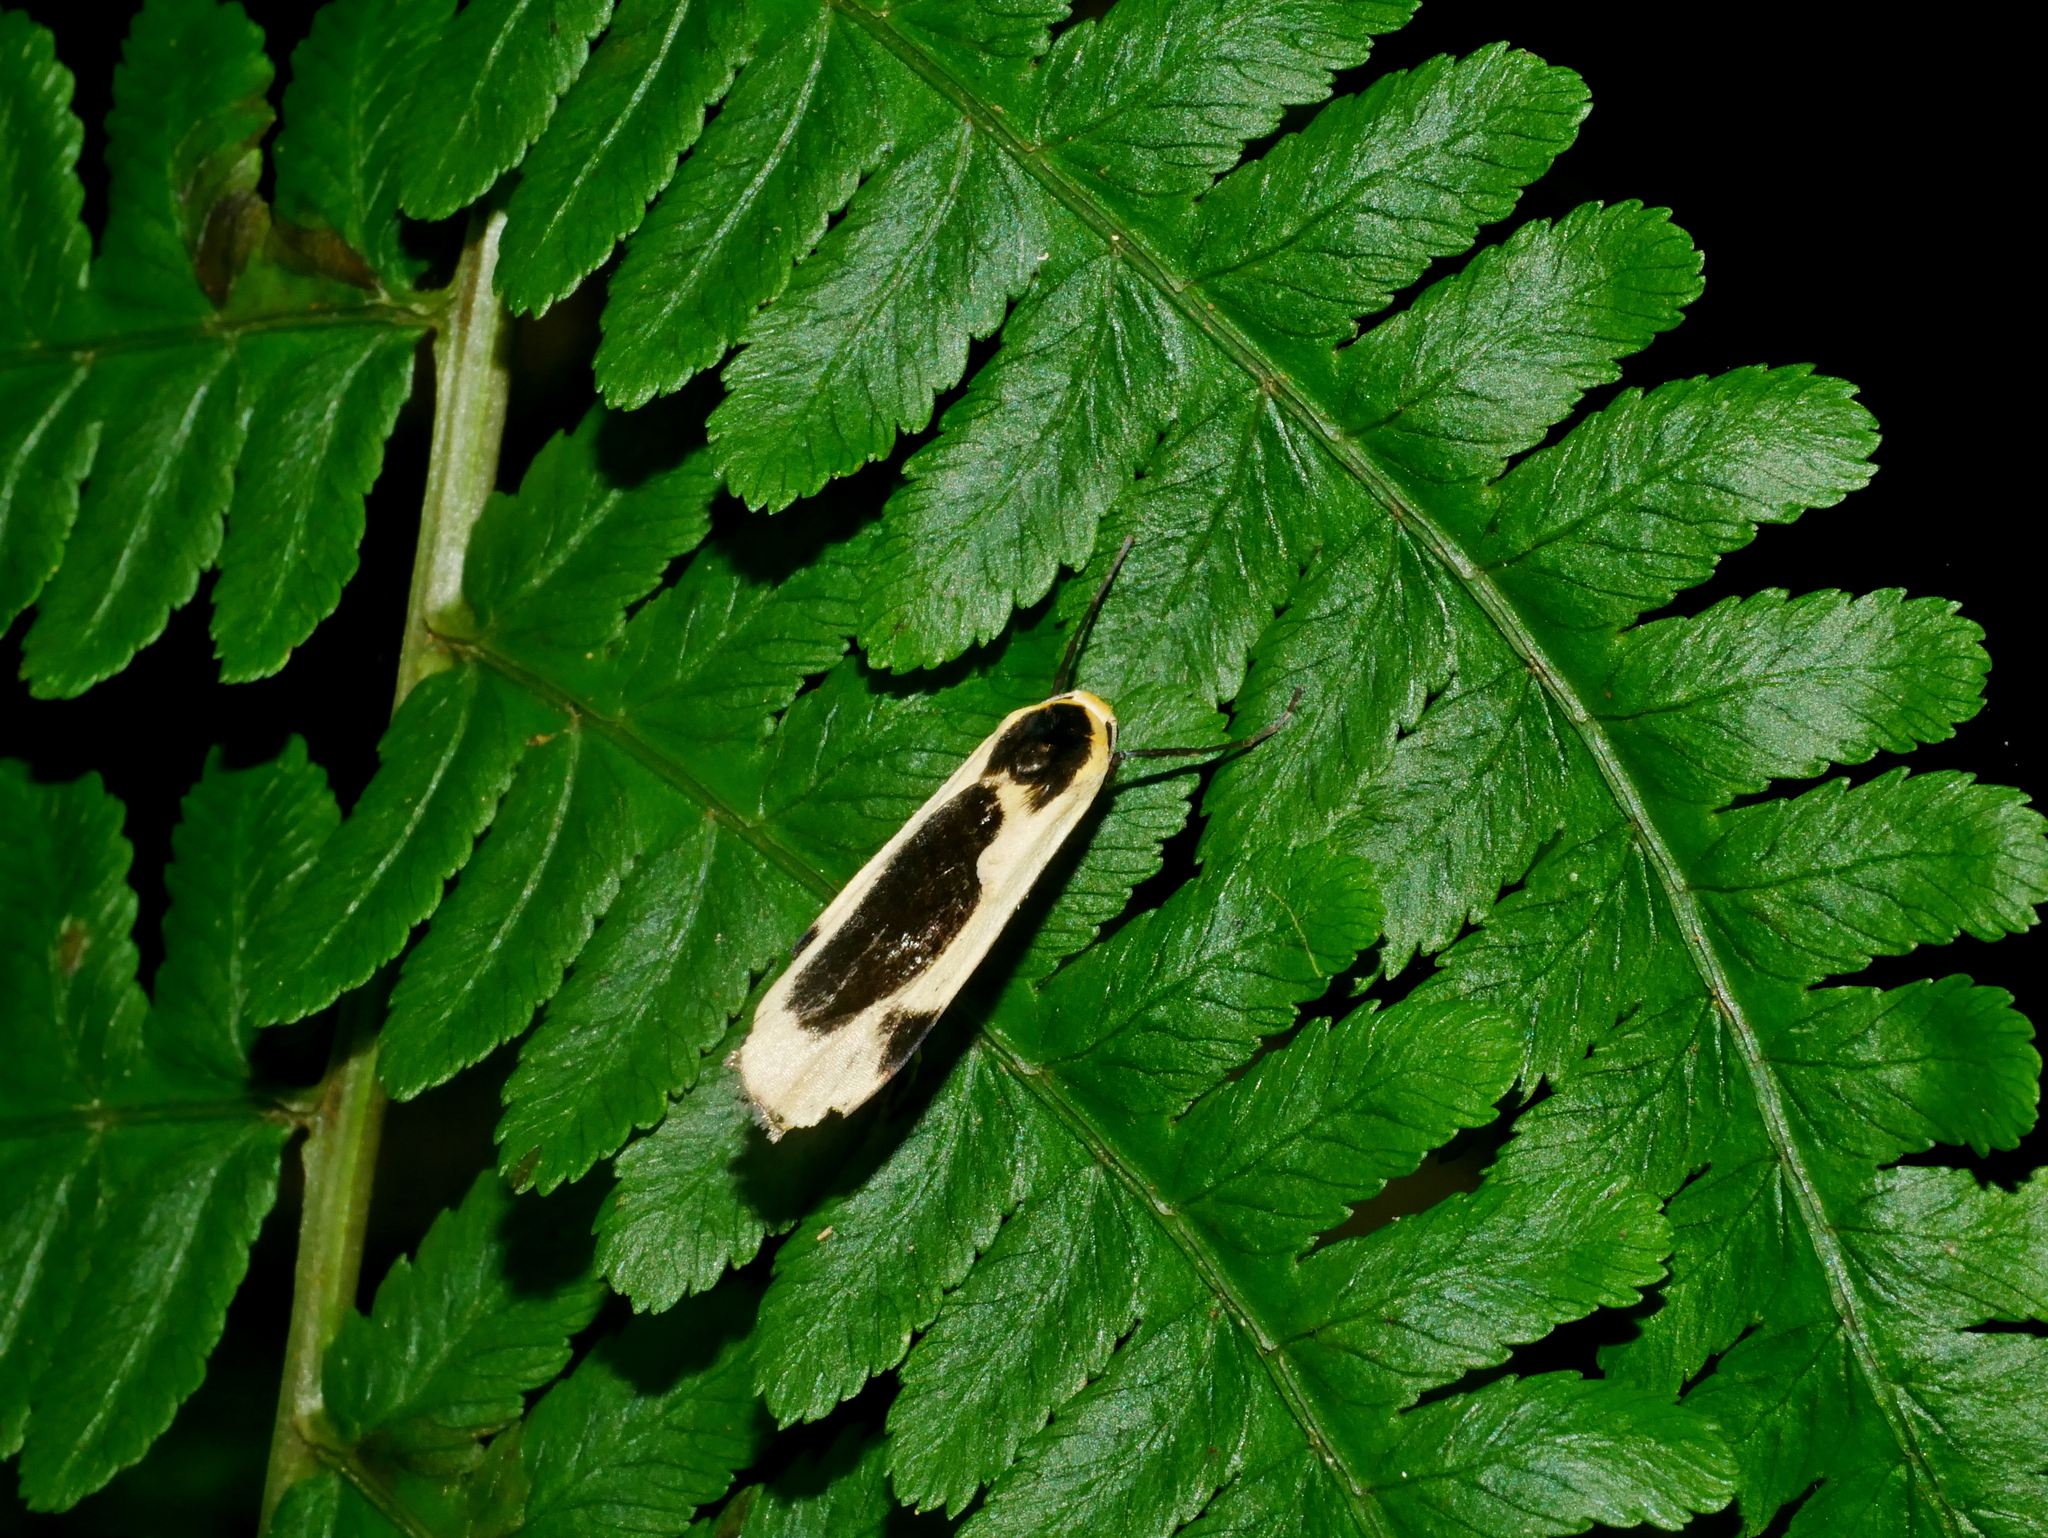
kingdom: Animalia
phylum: Arthropoda
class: Insecta
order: Lepidoptera
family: Erebidae
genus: Thysanoptyx
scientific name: Thysanoptyx incurvata
